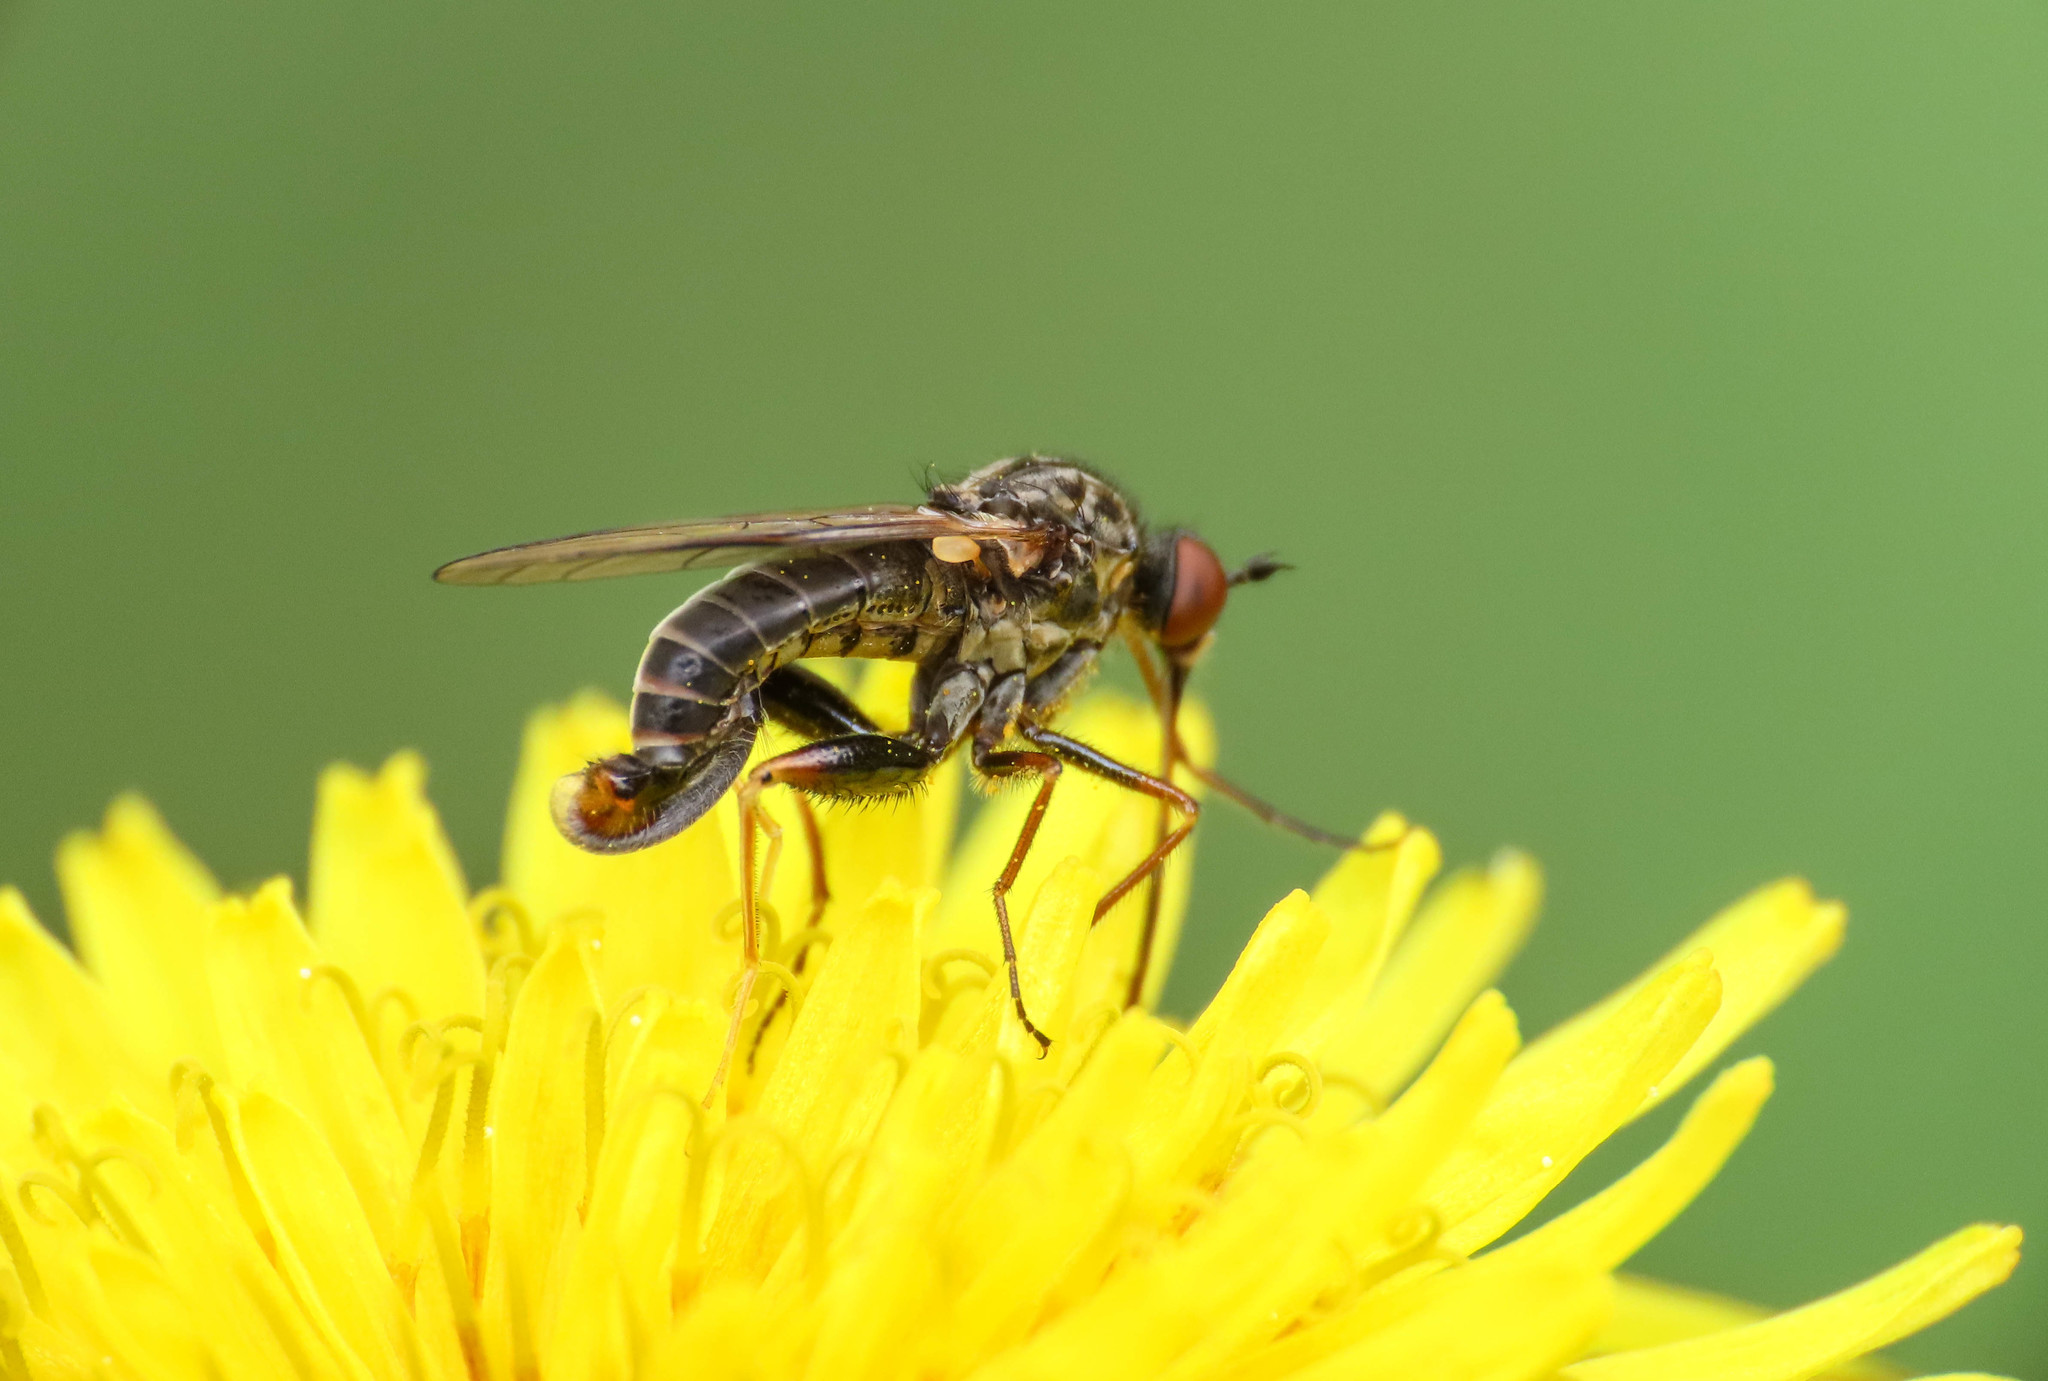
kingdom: Animalia
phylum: Arthropoda
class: Insecta
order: Diptera
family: Empididae
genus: Empis
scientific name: Empis femorata
